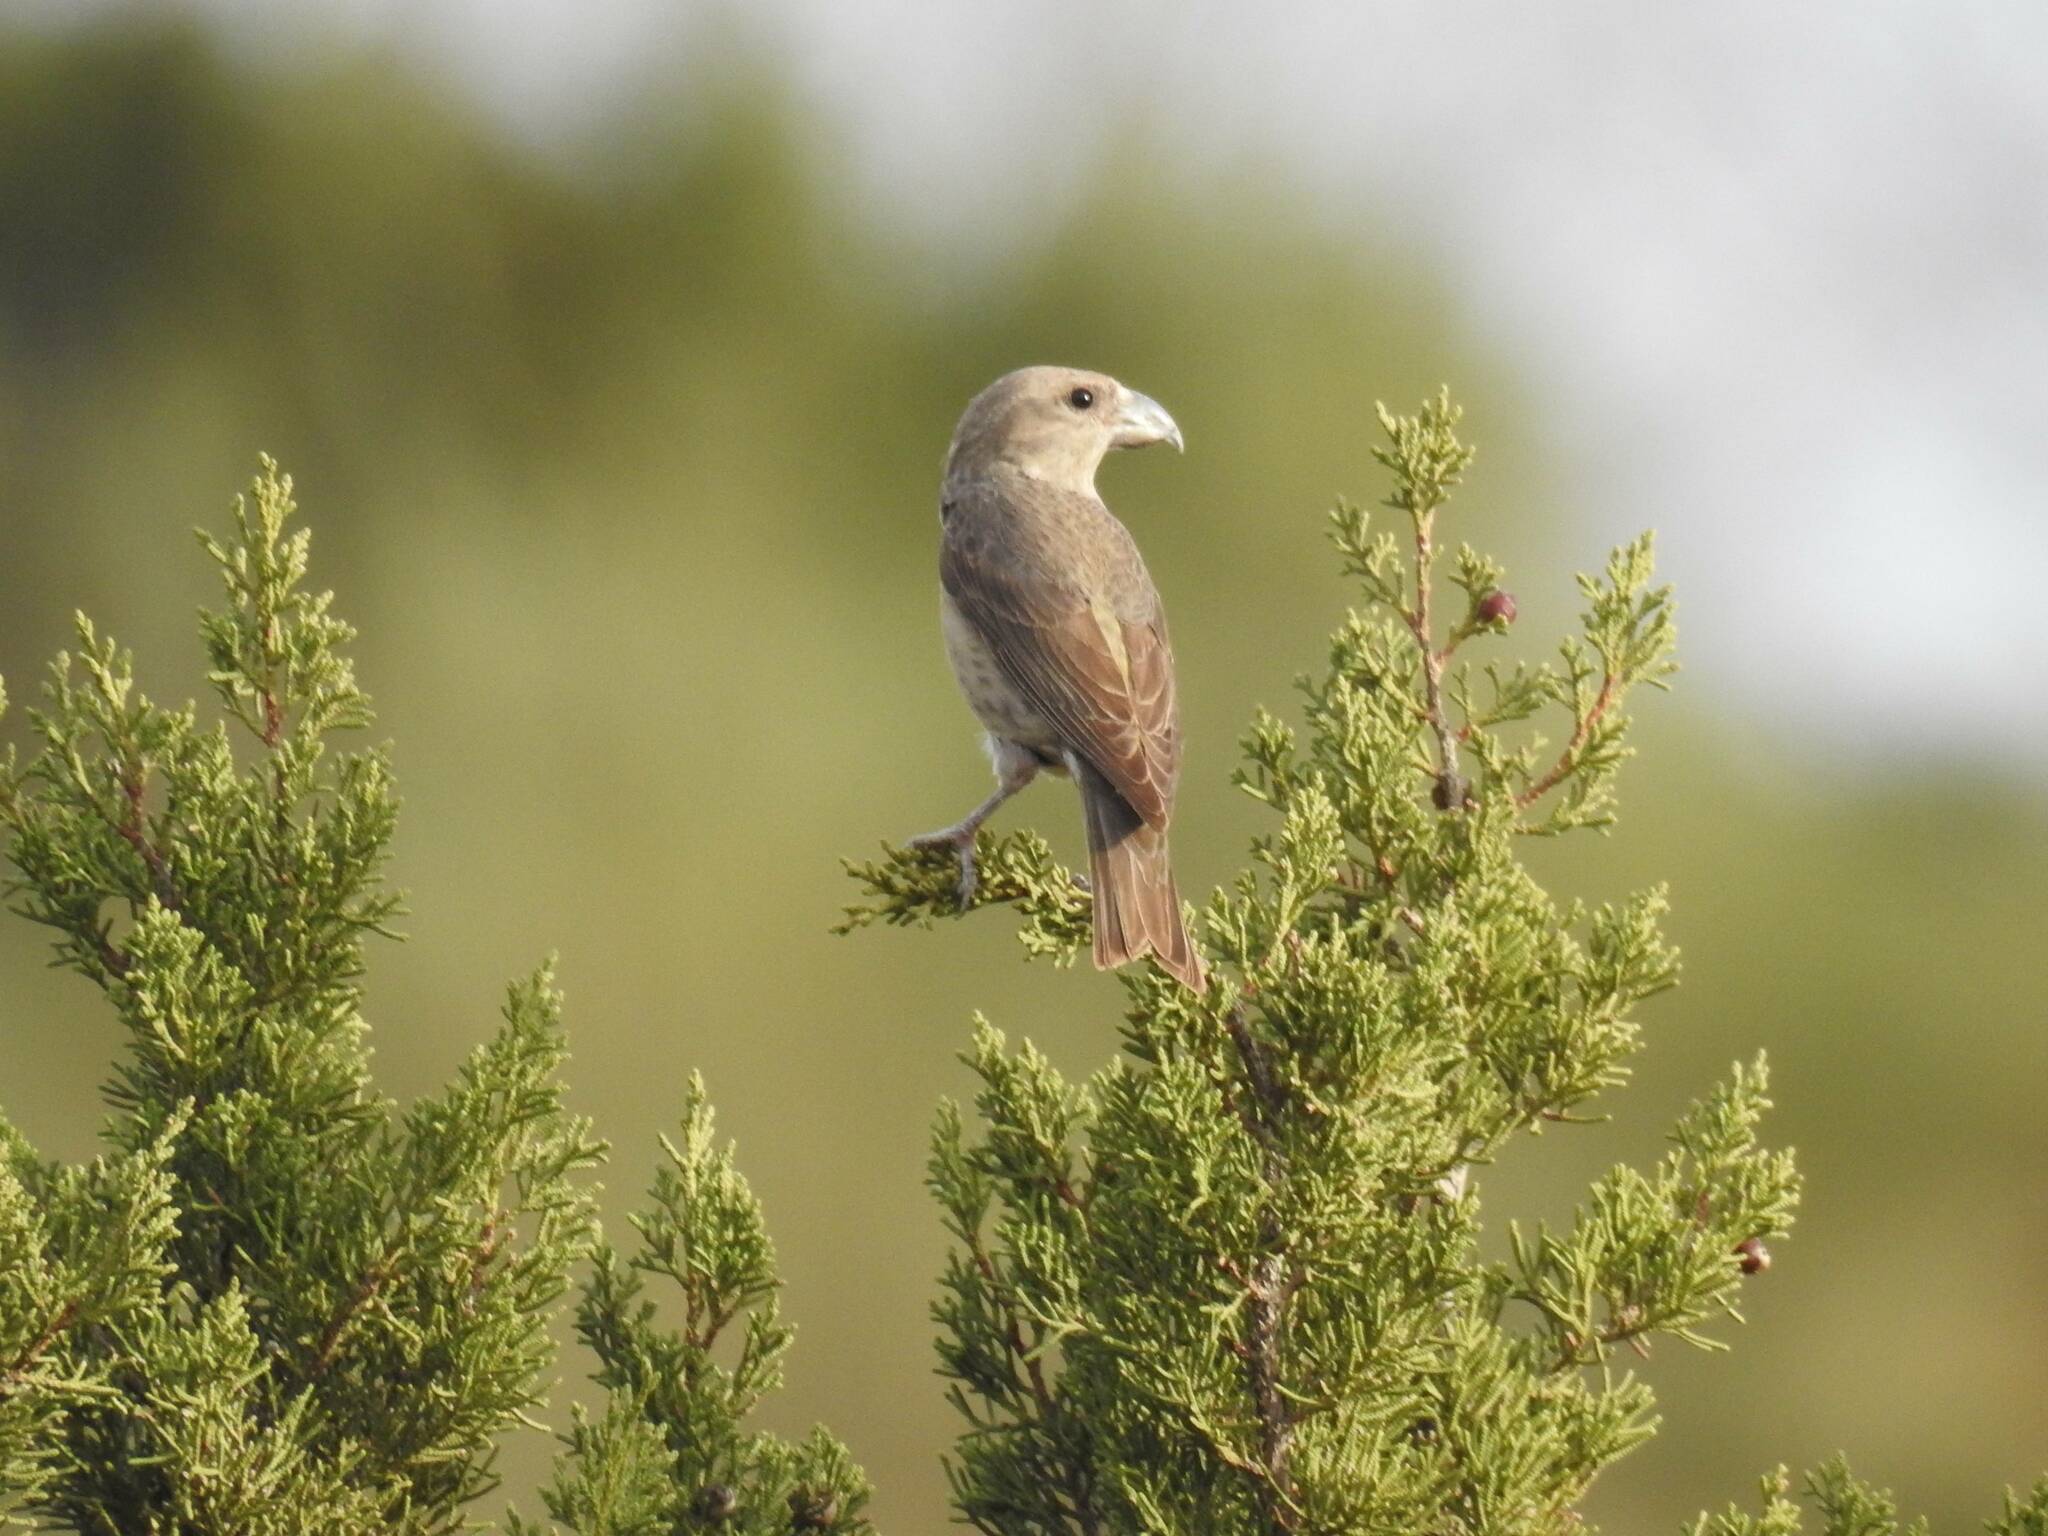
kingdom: Animalia
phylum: Chordata
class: Aves
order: Passeriformes
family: Fringillidae
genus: Loxia
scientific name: Loxia curvirostra
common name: Red crossbill
